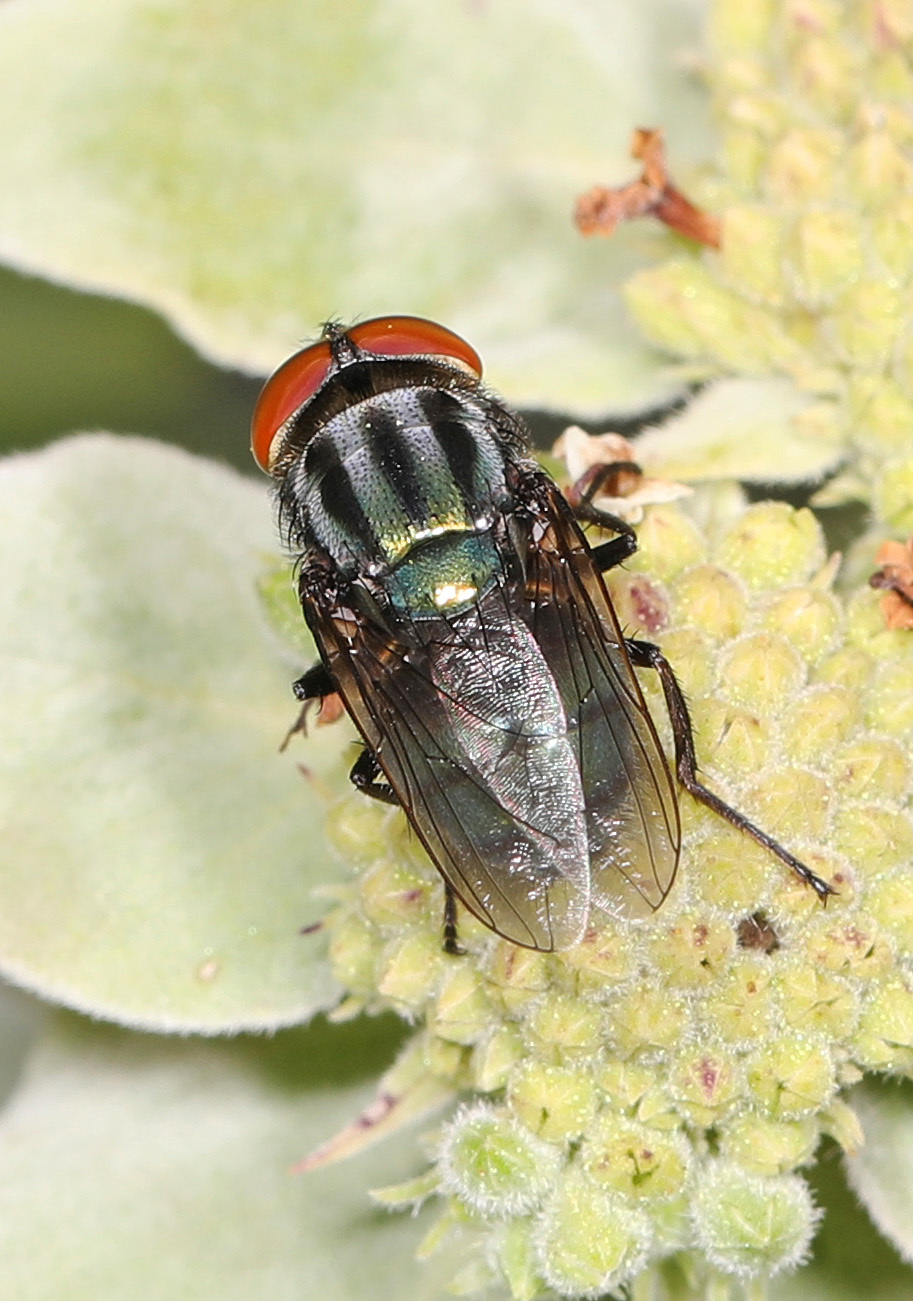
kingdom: Animalia
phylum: Arthropoda
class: Insecta
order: Diptera
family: Calliphoridae
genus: Cochliomyia
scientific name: Cochliomyia macellaria
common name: Secondary screwworm
